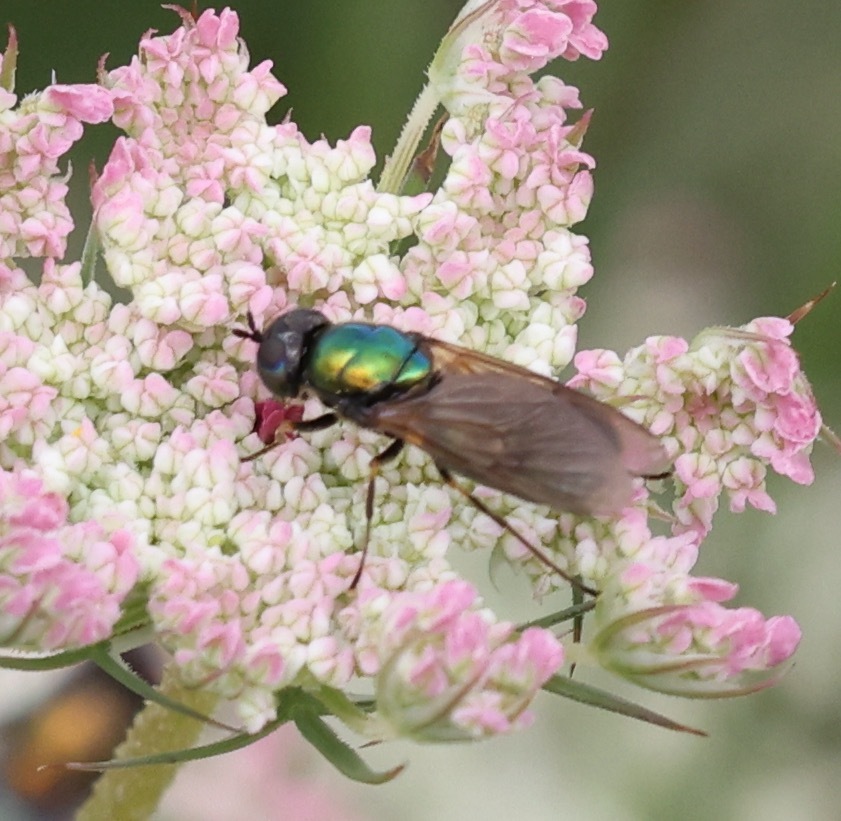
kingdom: Animalia
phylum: Arthropoda
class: Insecta
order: Diptera
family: Stratiomyidae
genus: Chloromyia
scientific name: Chloromyia formosa
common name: Soldier fly
